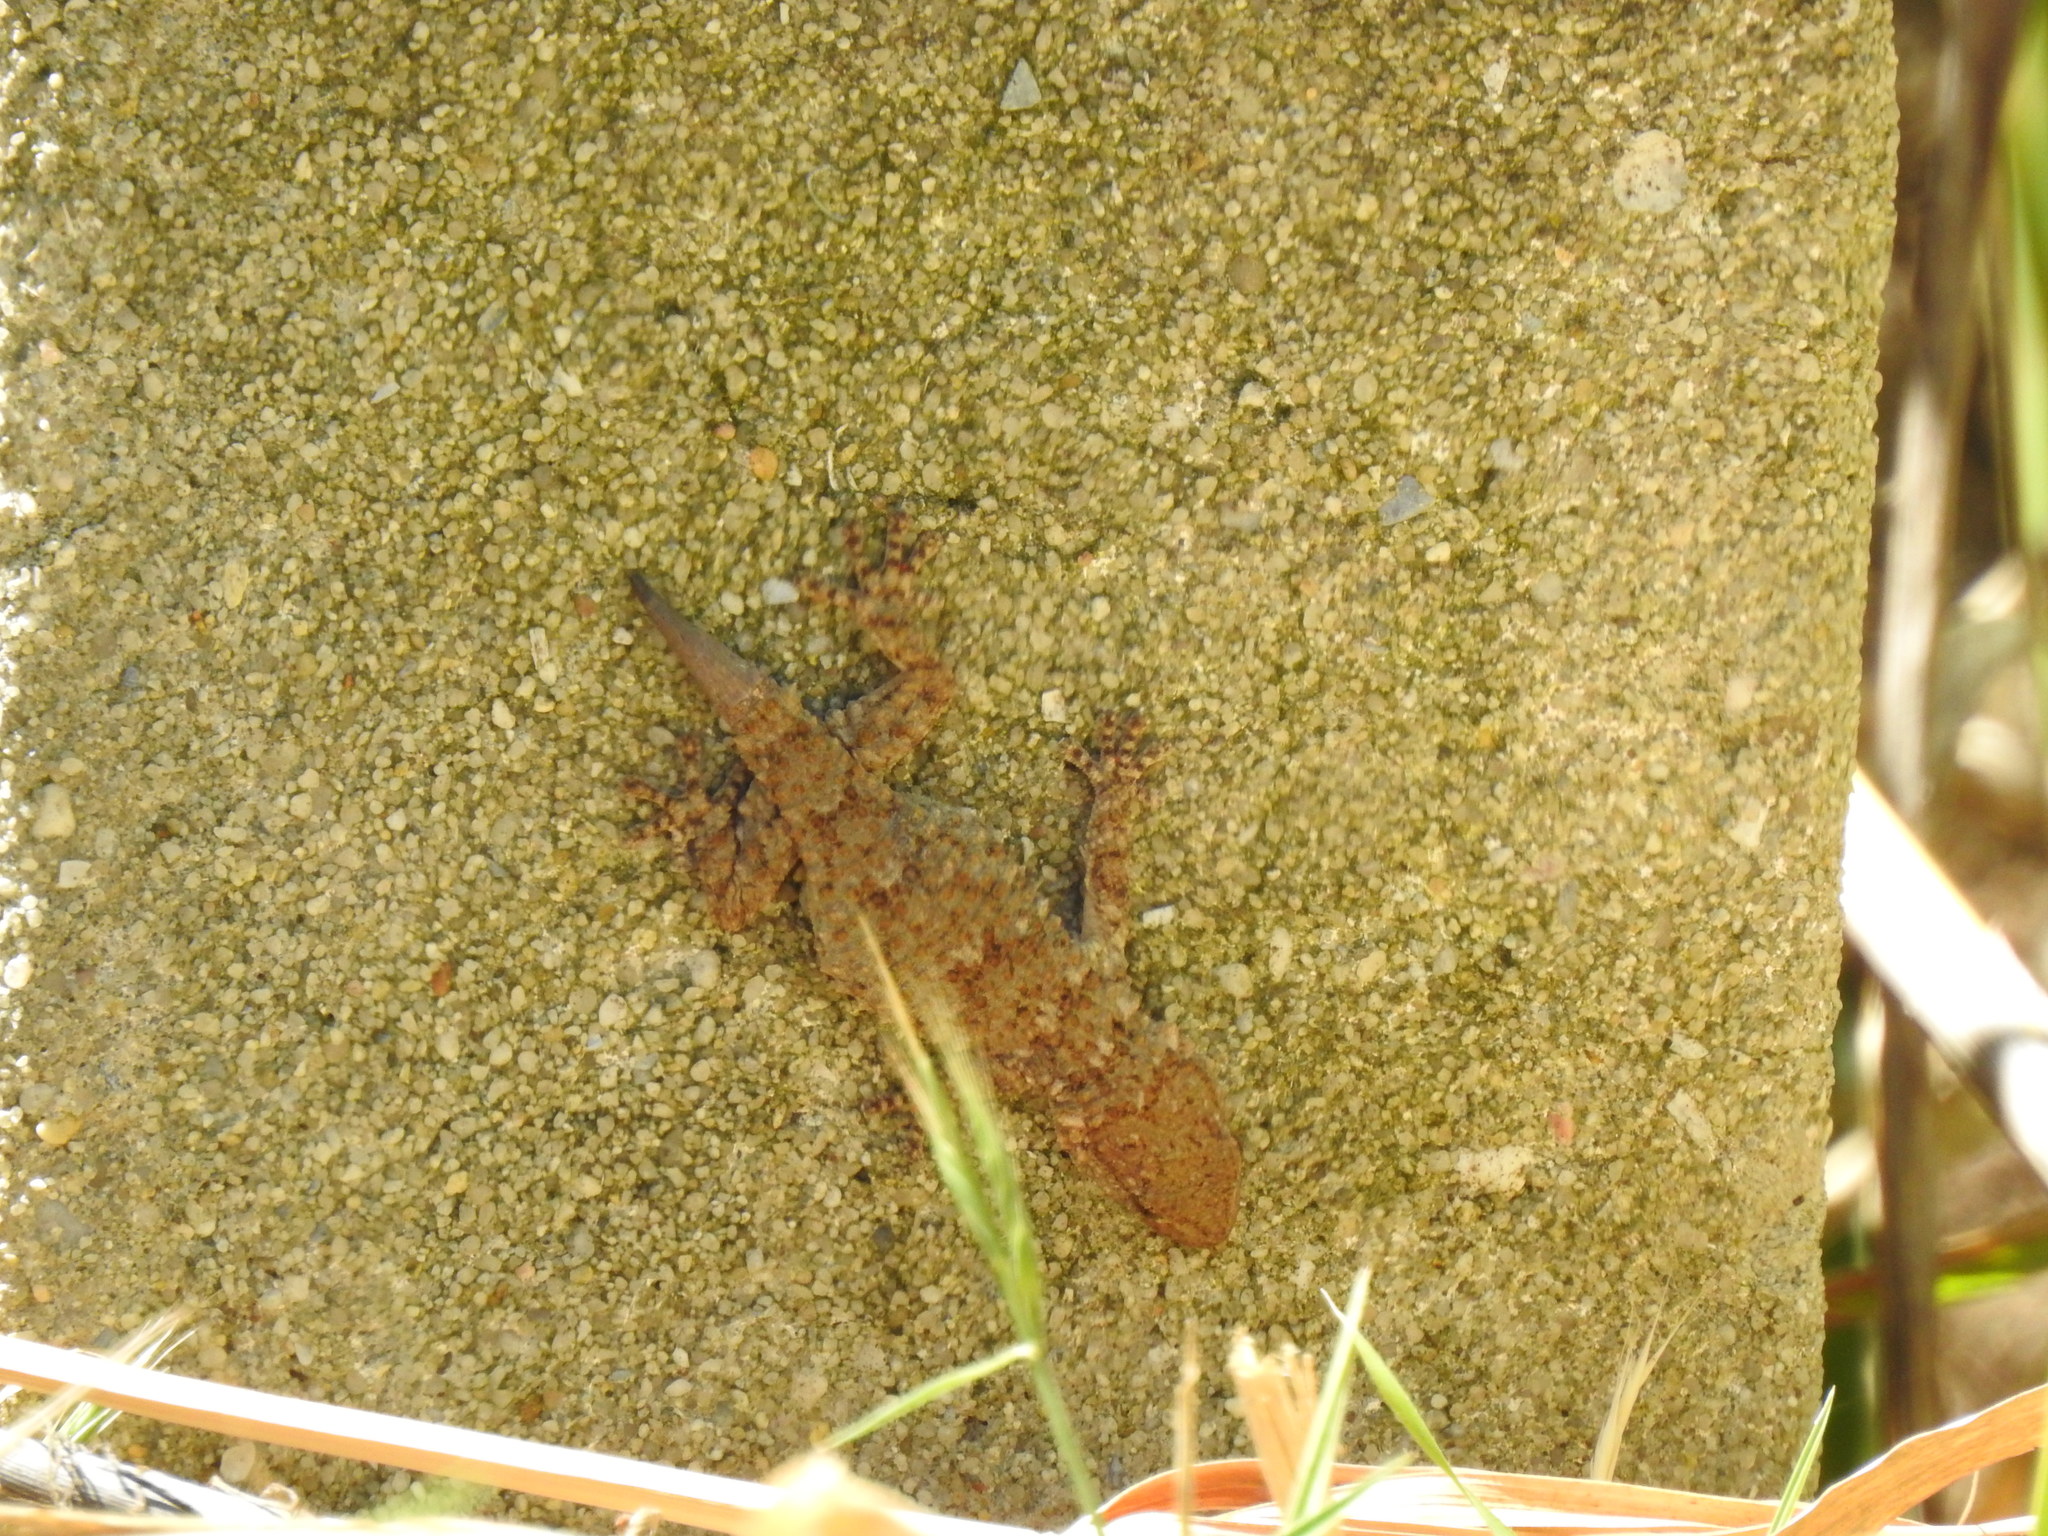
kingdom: Animalia
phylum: Chordata
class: Squamata
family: Phyllodactylidae
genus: Tarentola
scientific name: Tarentola mauritanica
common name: Moorish gecko
